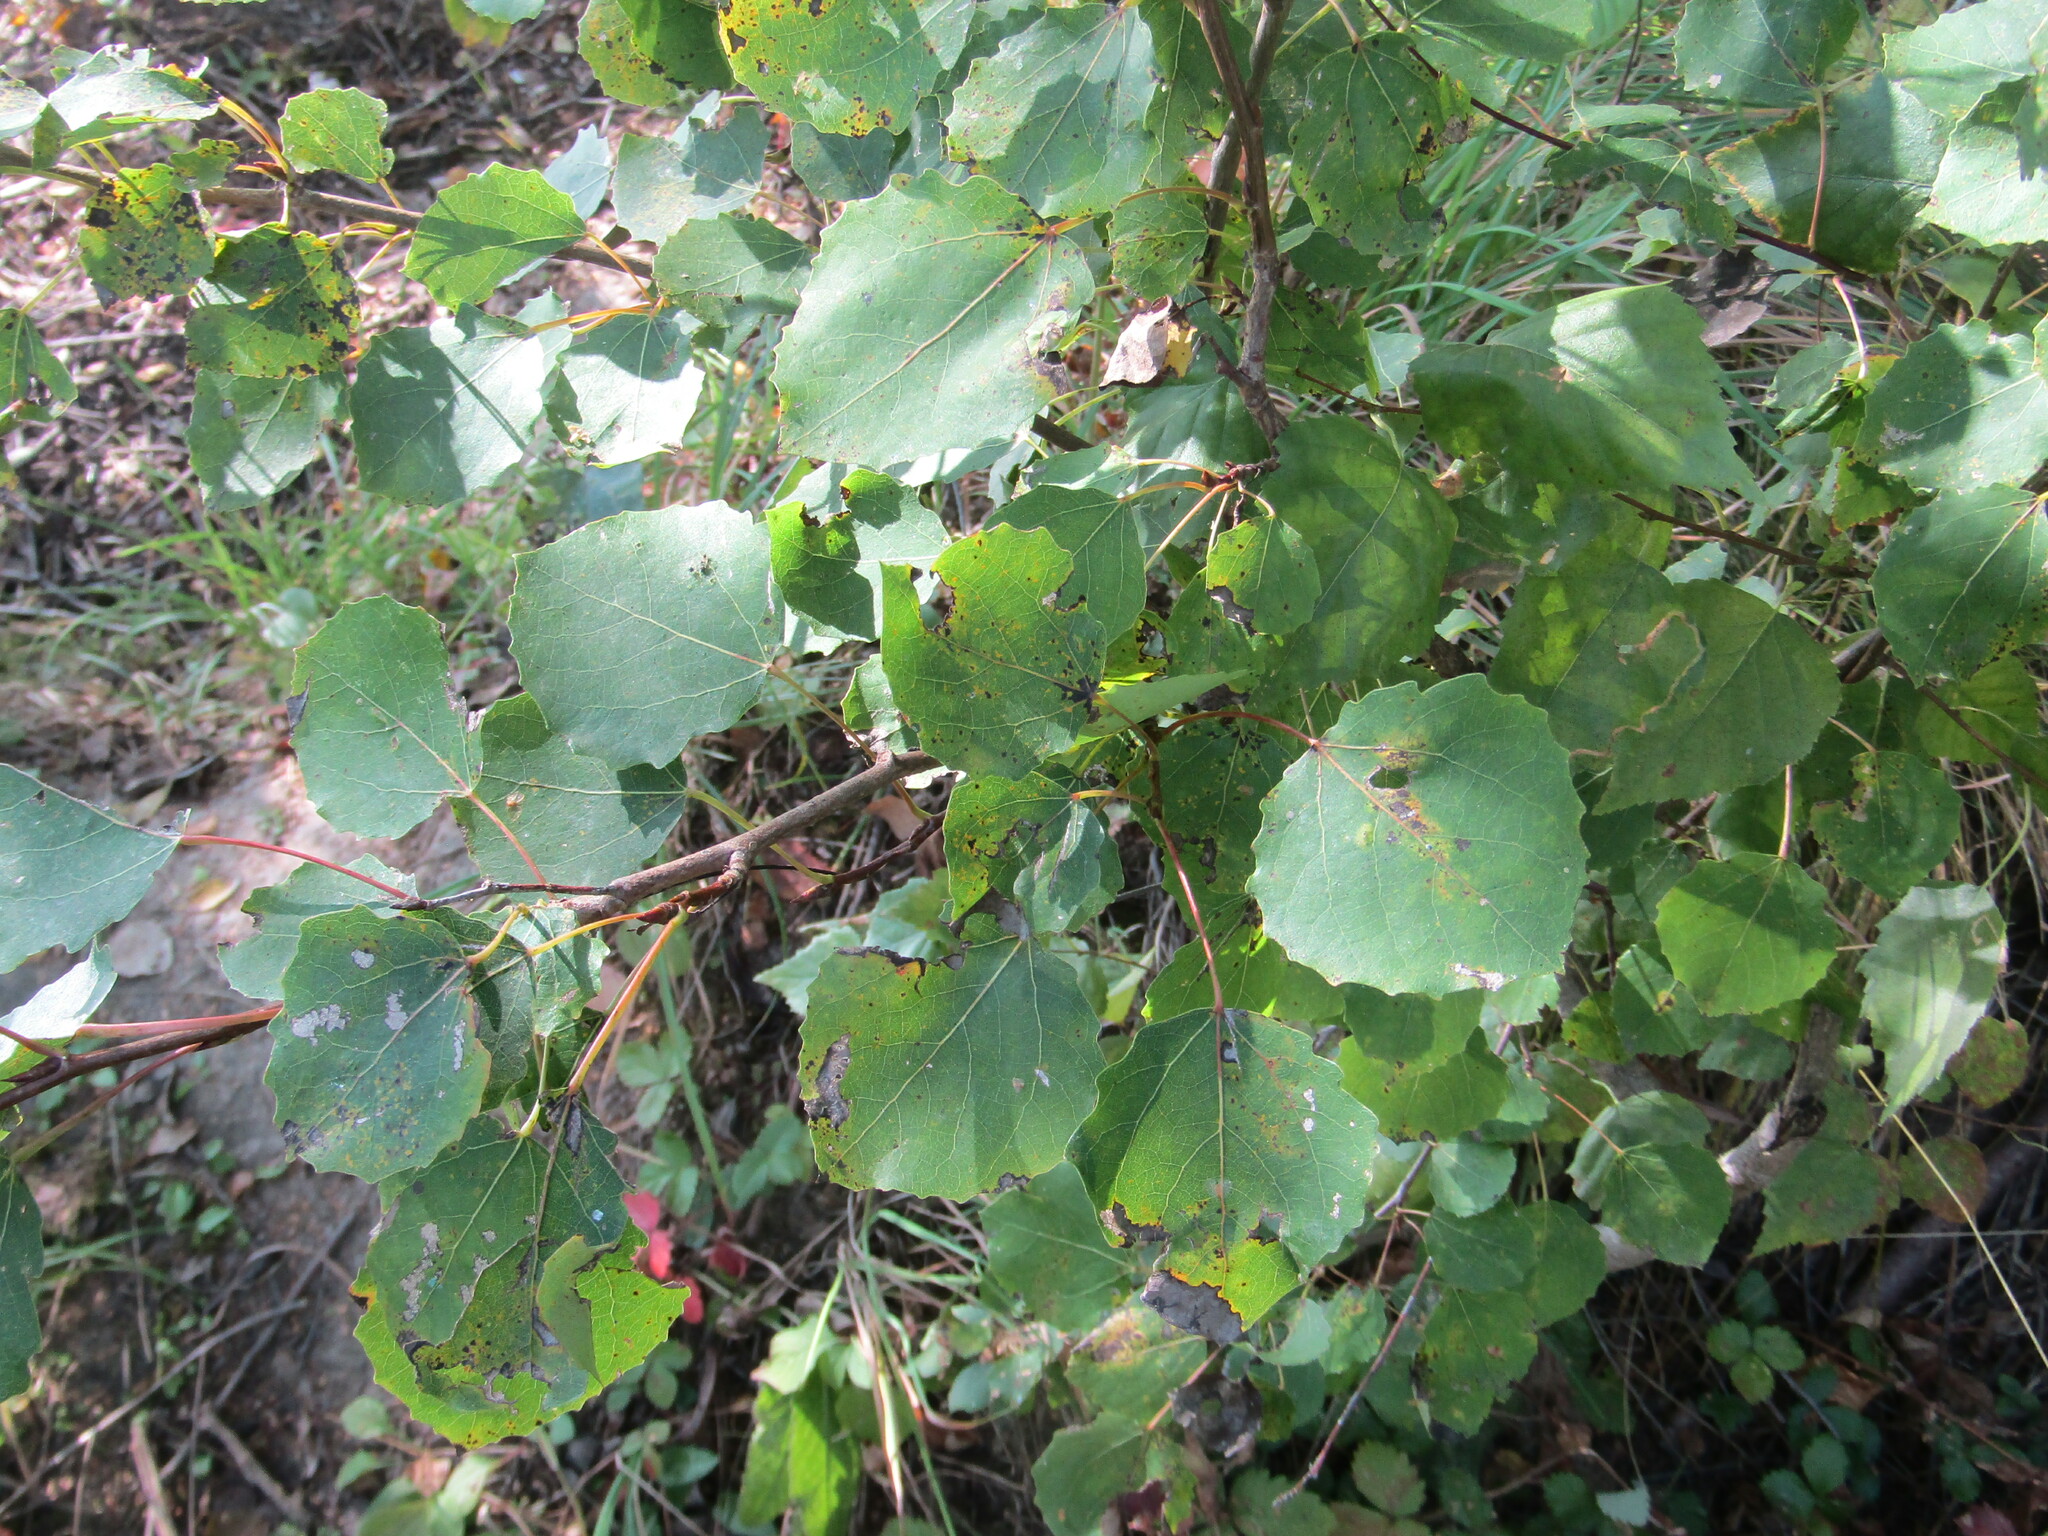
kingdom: Plantae
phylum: Tracheophyta
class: Magnoliopsida
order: Malpighiales
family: Salicaceae
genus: Populus
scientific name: Populus tremula
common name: European aspen
